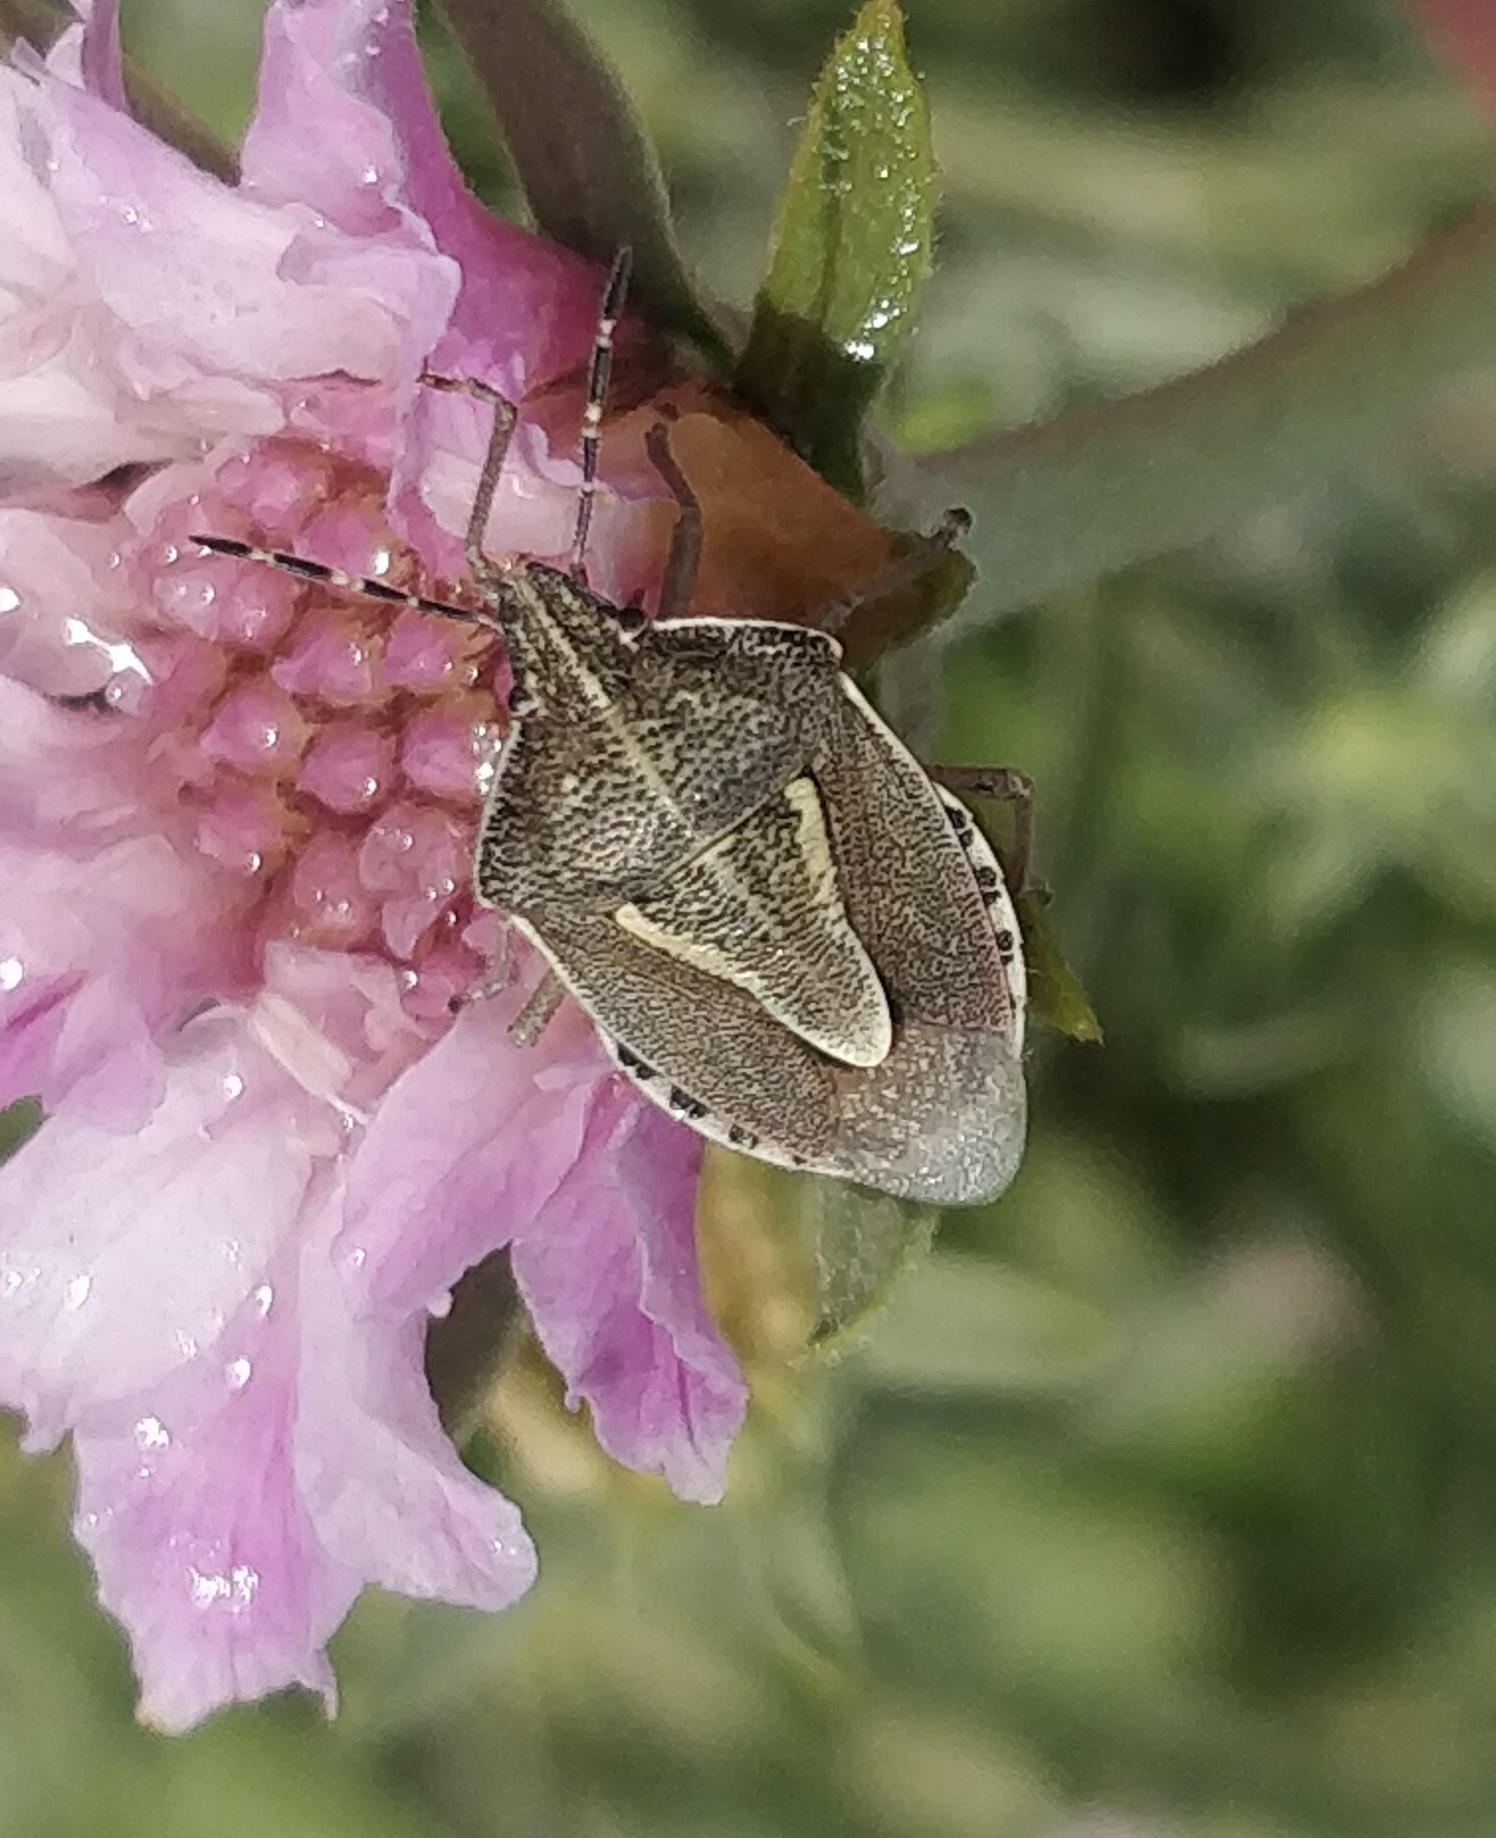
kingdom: Animalia
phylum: Arthropoda
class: Insecta
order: Hemiptera
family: Pentatomidae
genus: Eudolycoris
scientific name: Eudolycoris alluaudi
